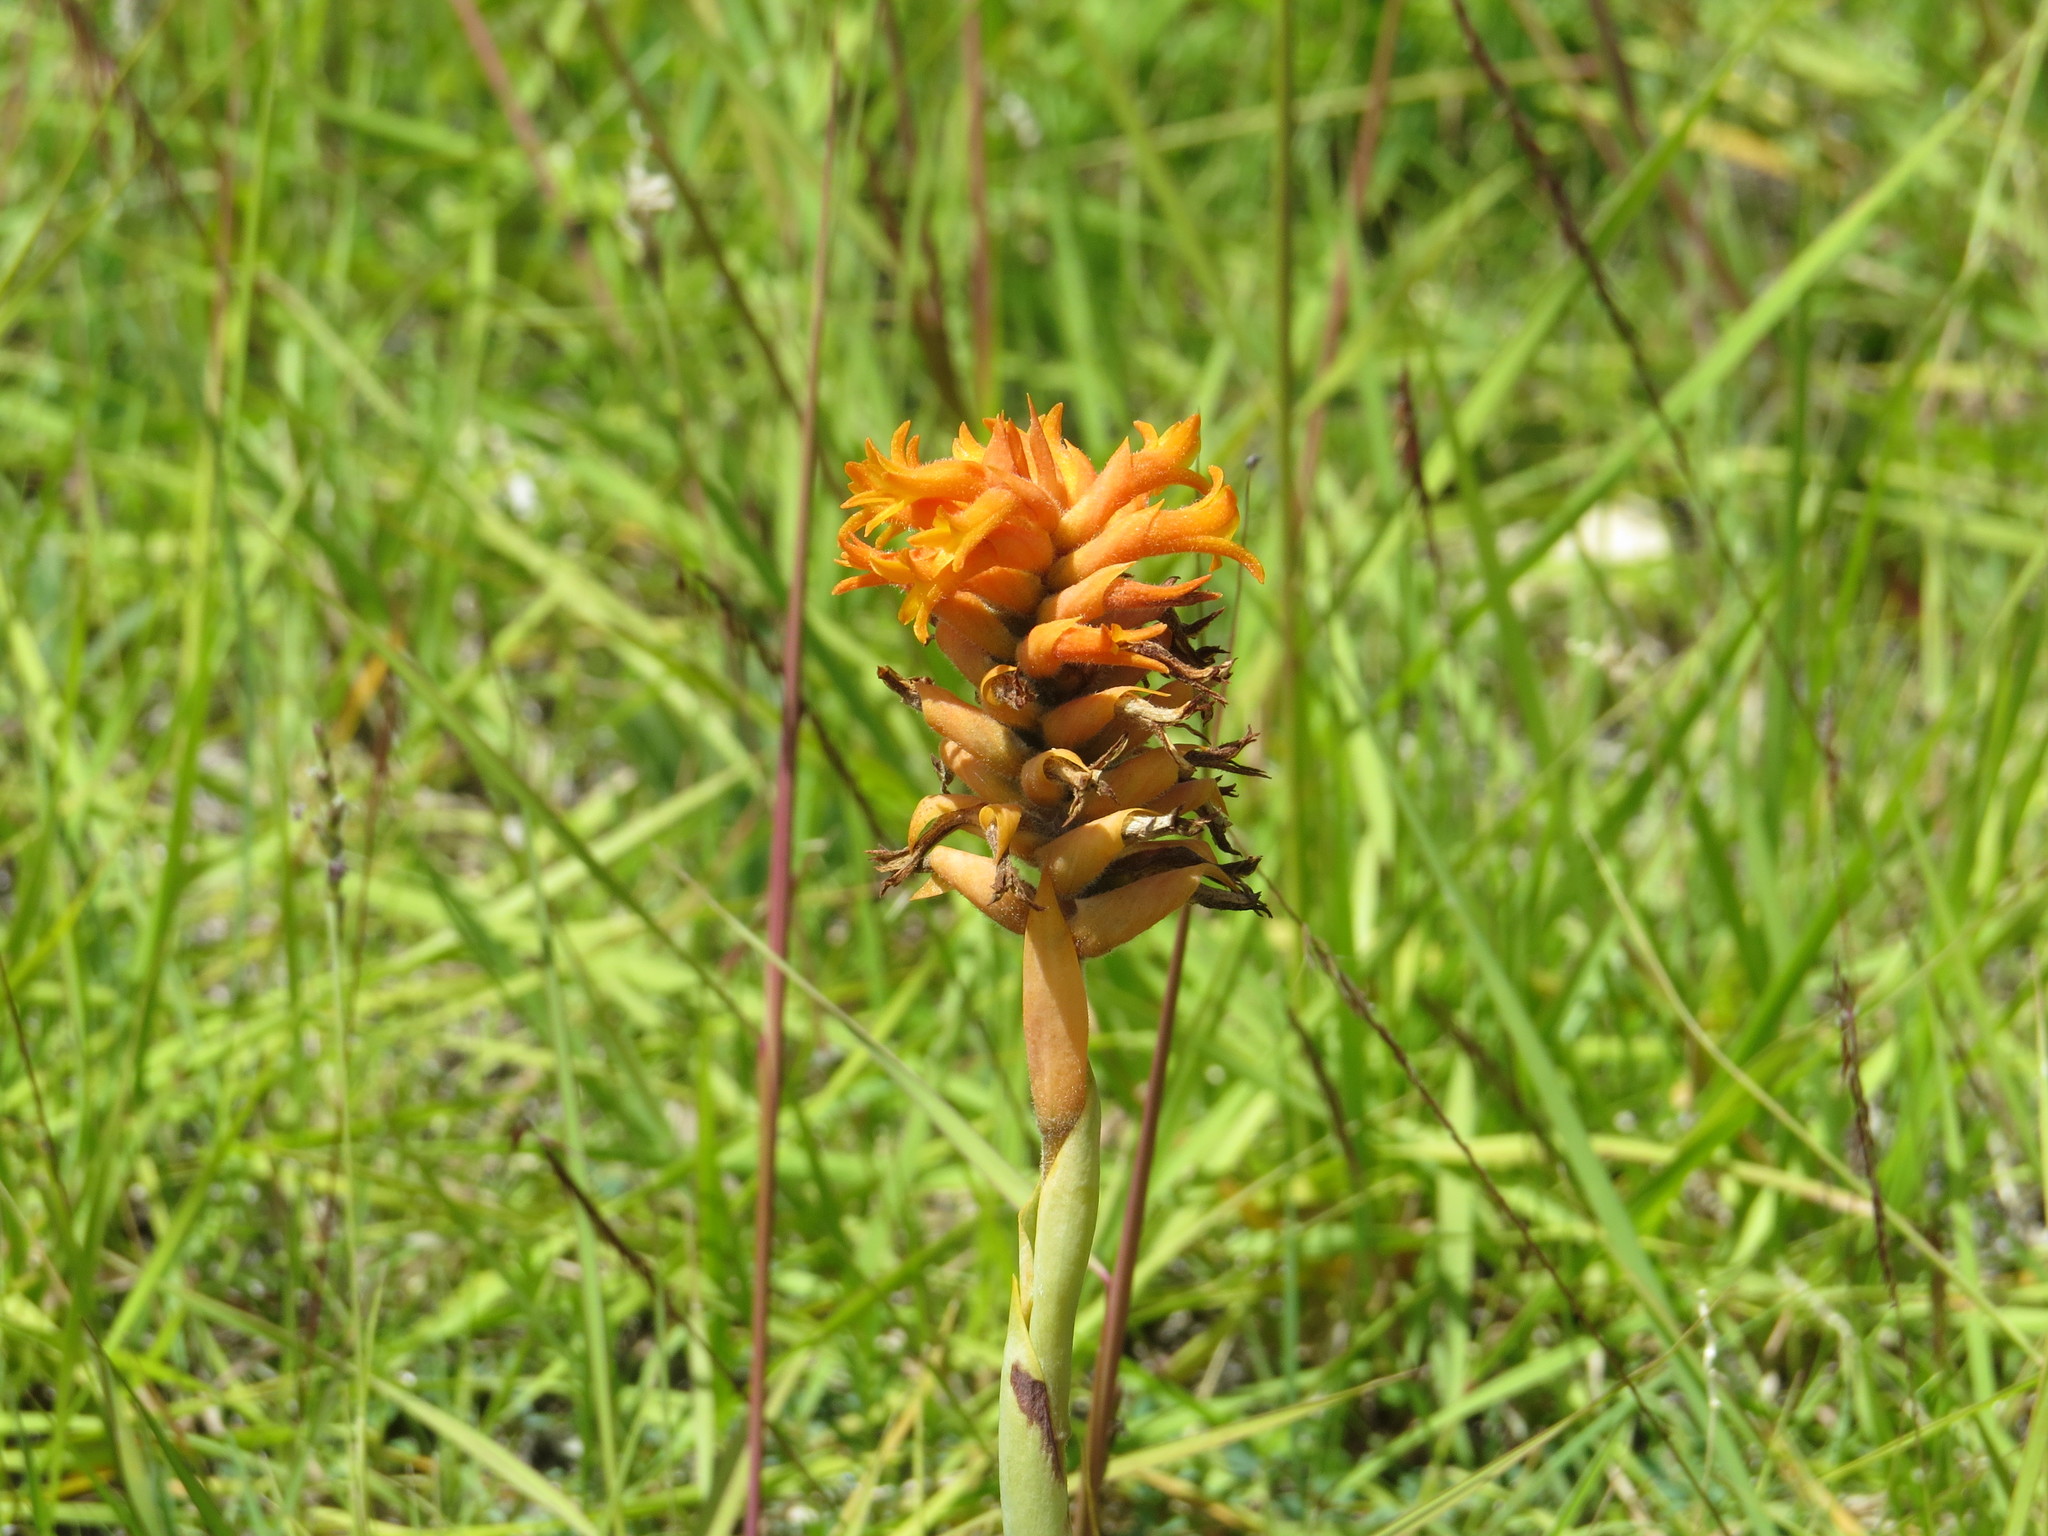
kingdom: Plantae
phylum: Tracheophyta
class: Liliopsida
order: Asparagales
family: Orchidaceae
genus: Dichromanthus
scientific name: Dichromanthus cinnabarinus
